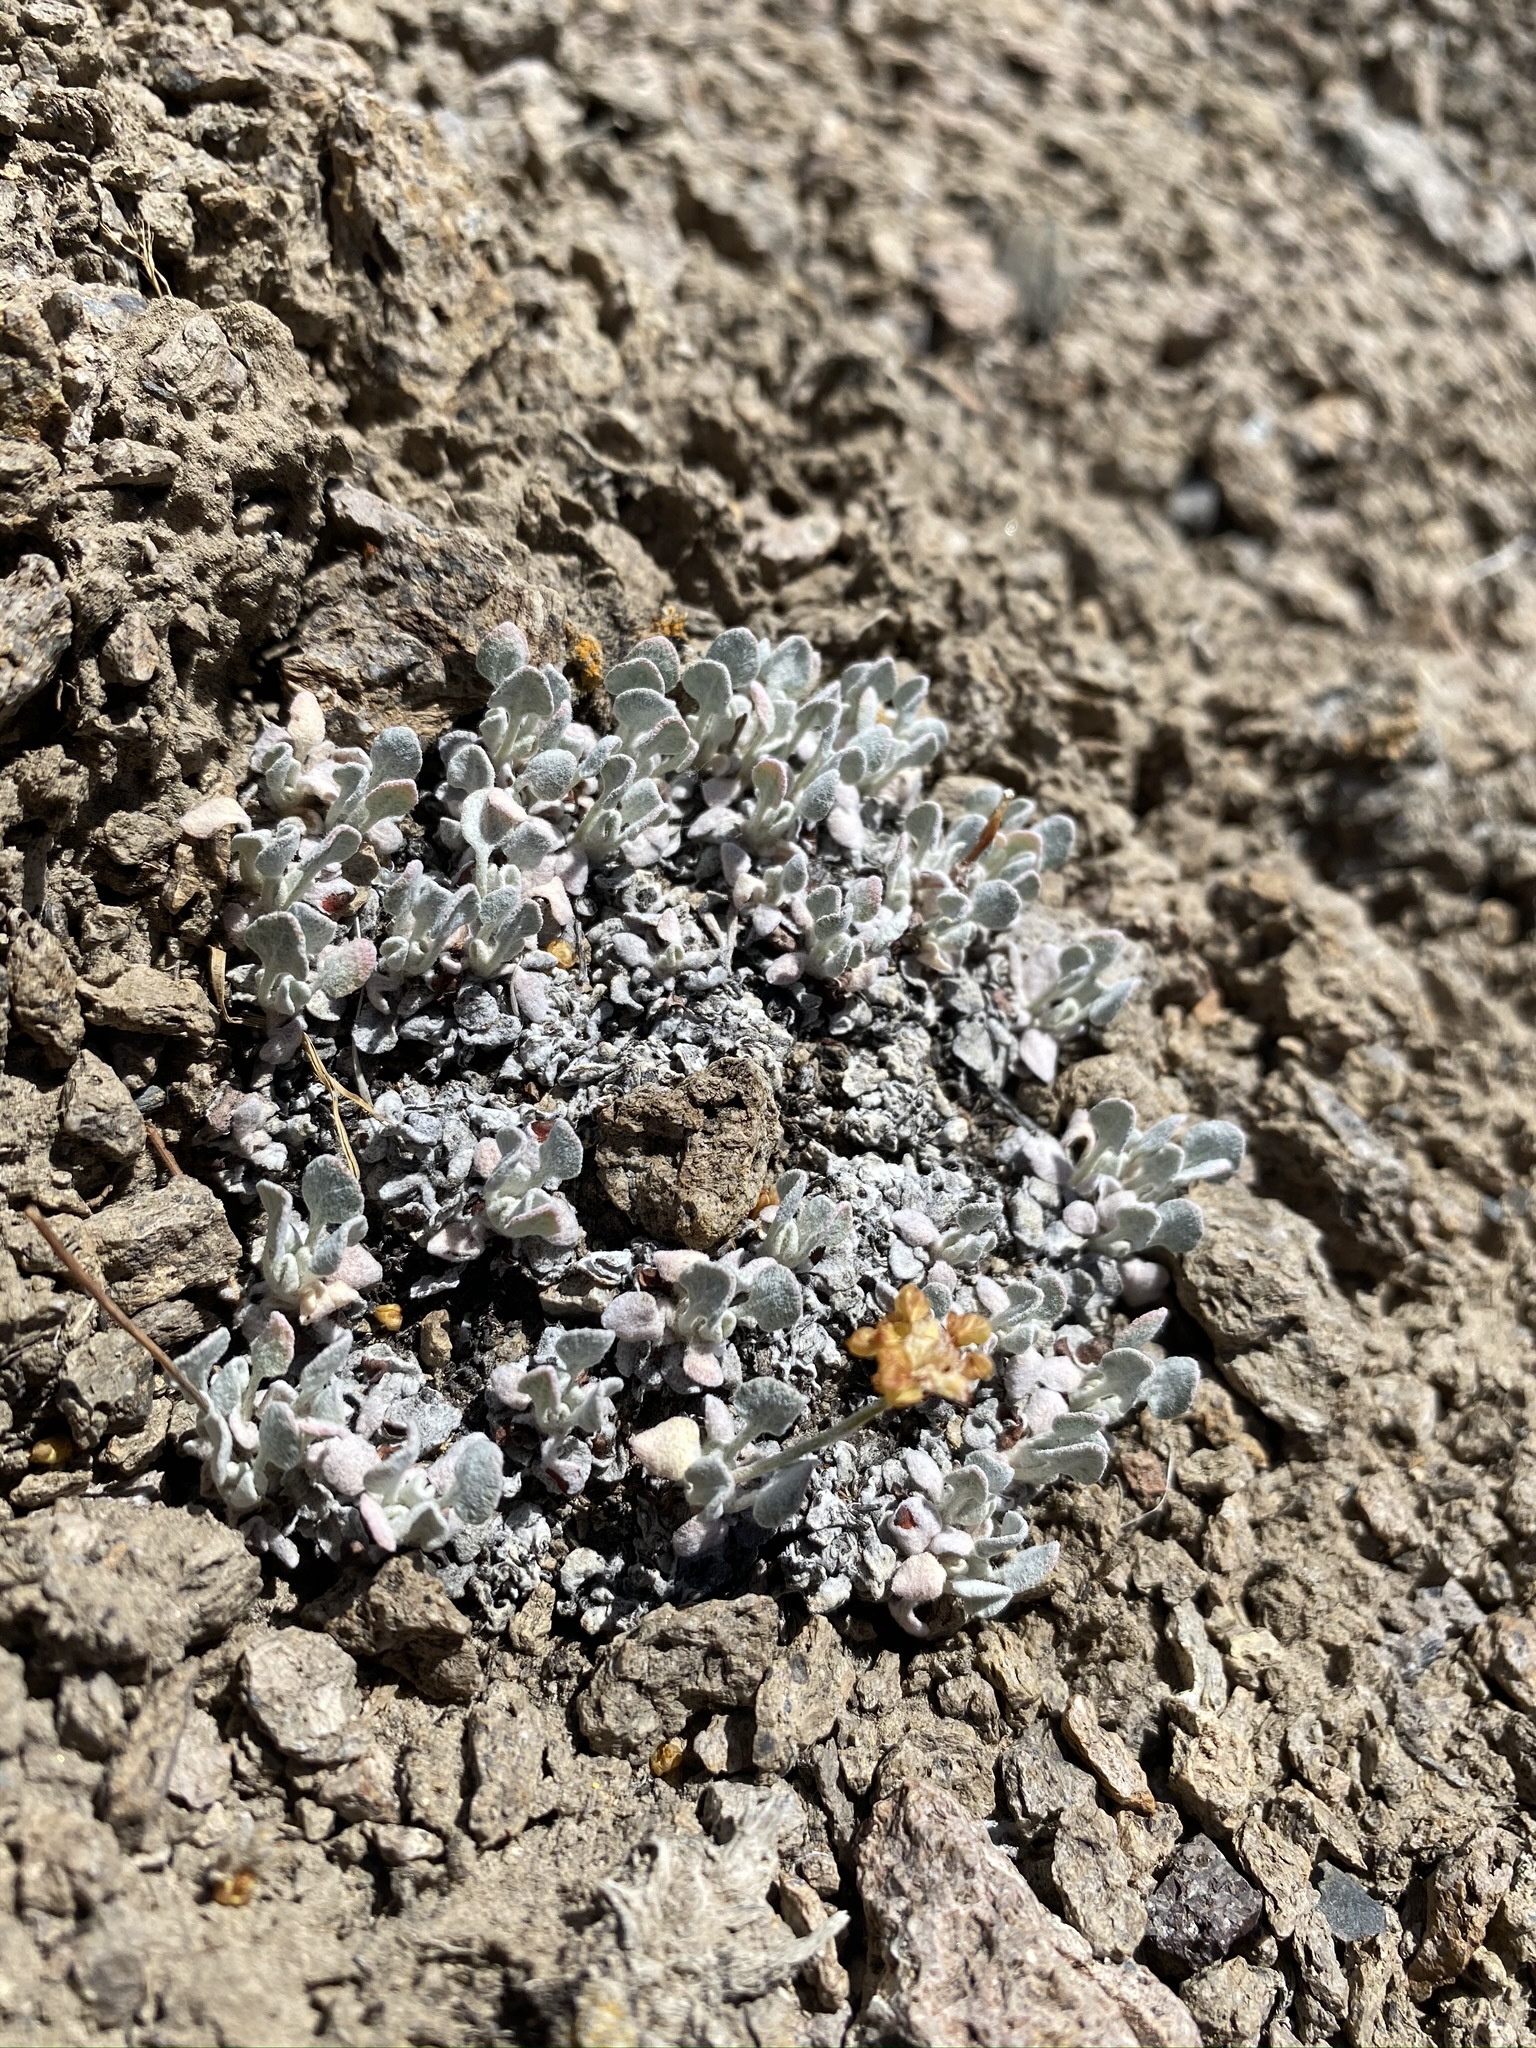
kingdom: Plantae
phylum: Tracheophyta
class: Magnoliopsida
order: Caryophyllales
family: Polygonaceae
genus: Eriogonum
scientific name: Eriogonum ovalifolium
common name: Cushion buckwheat
